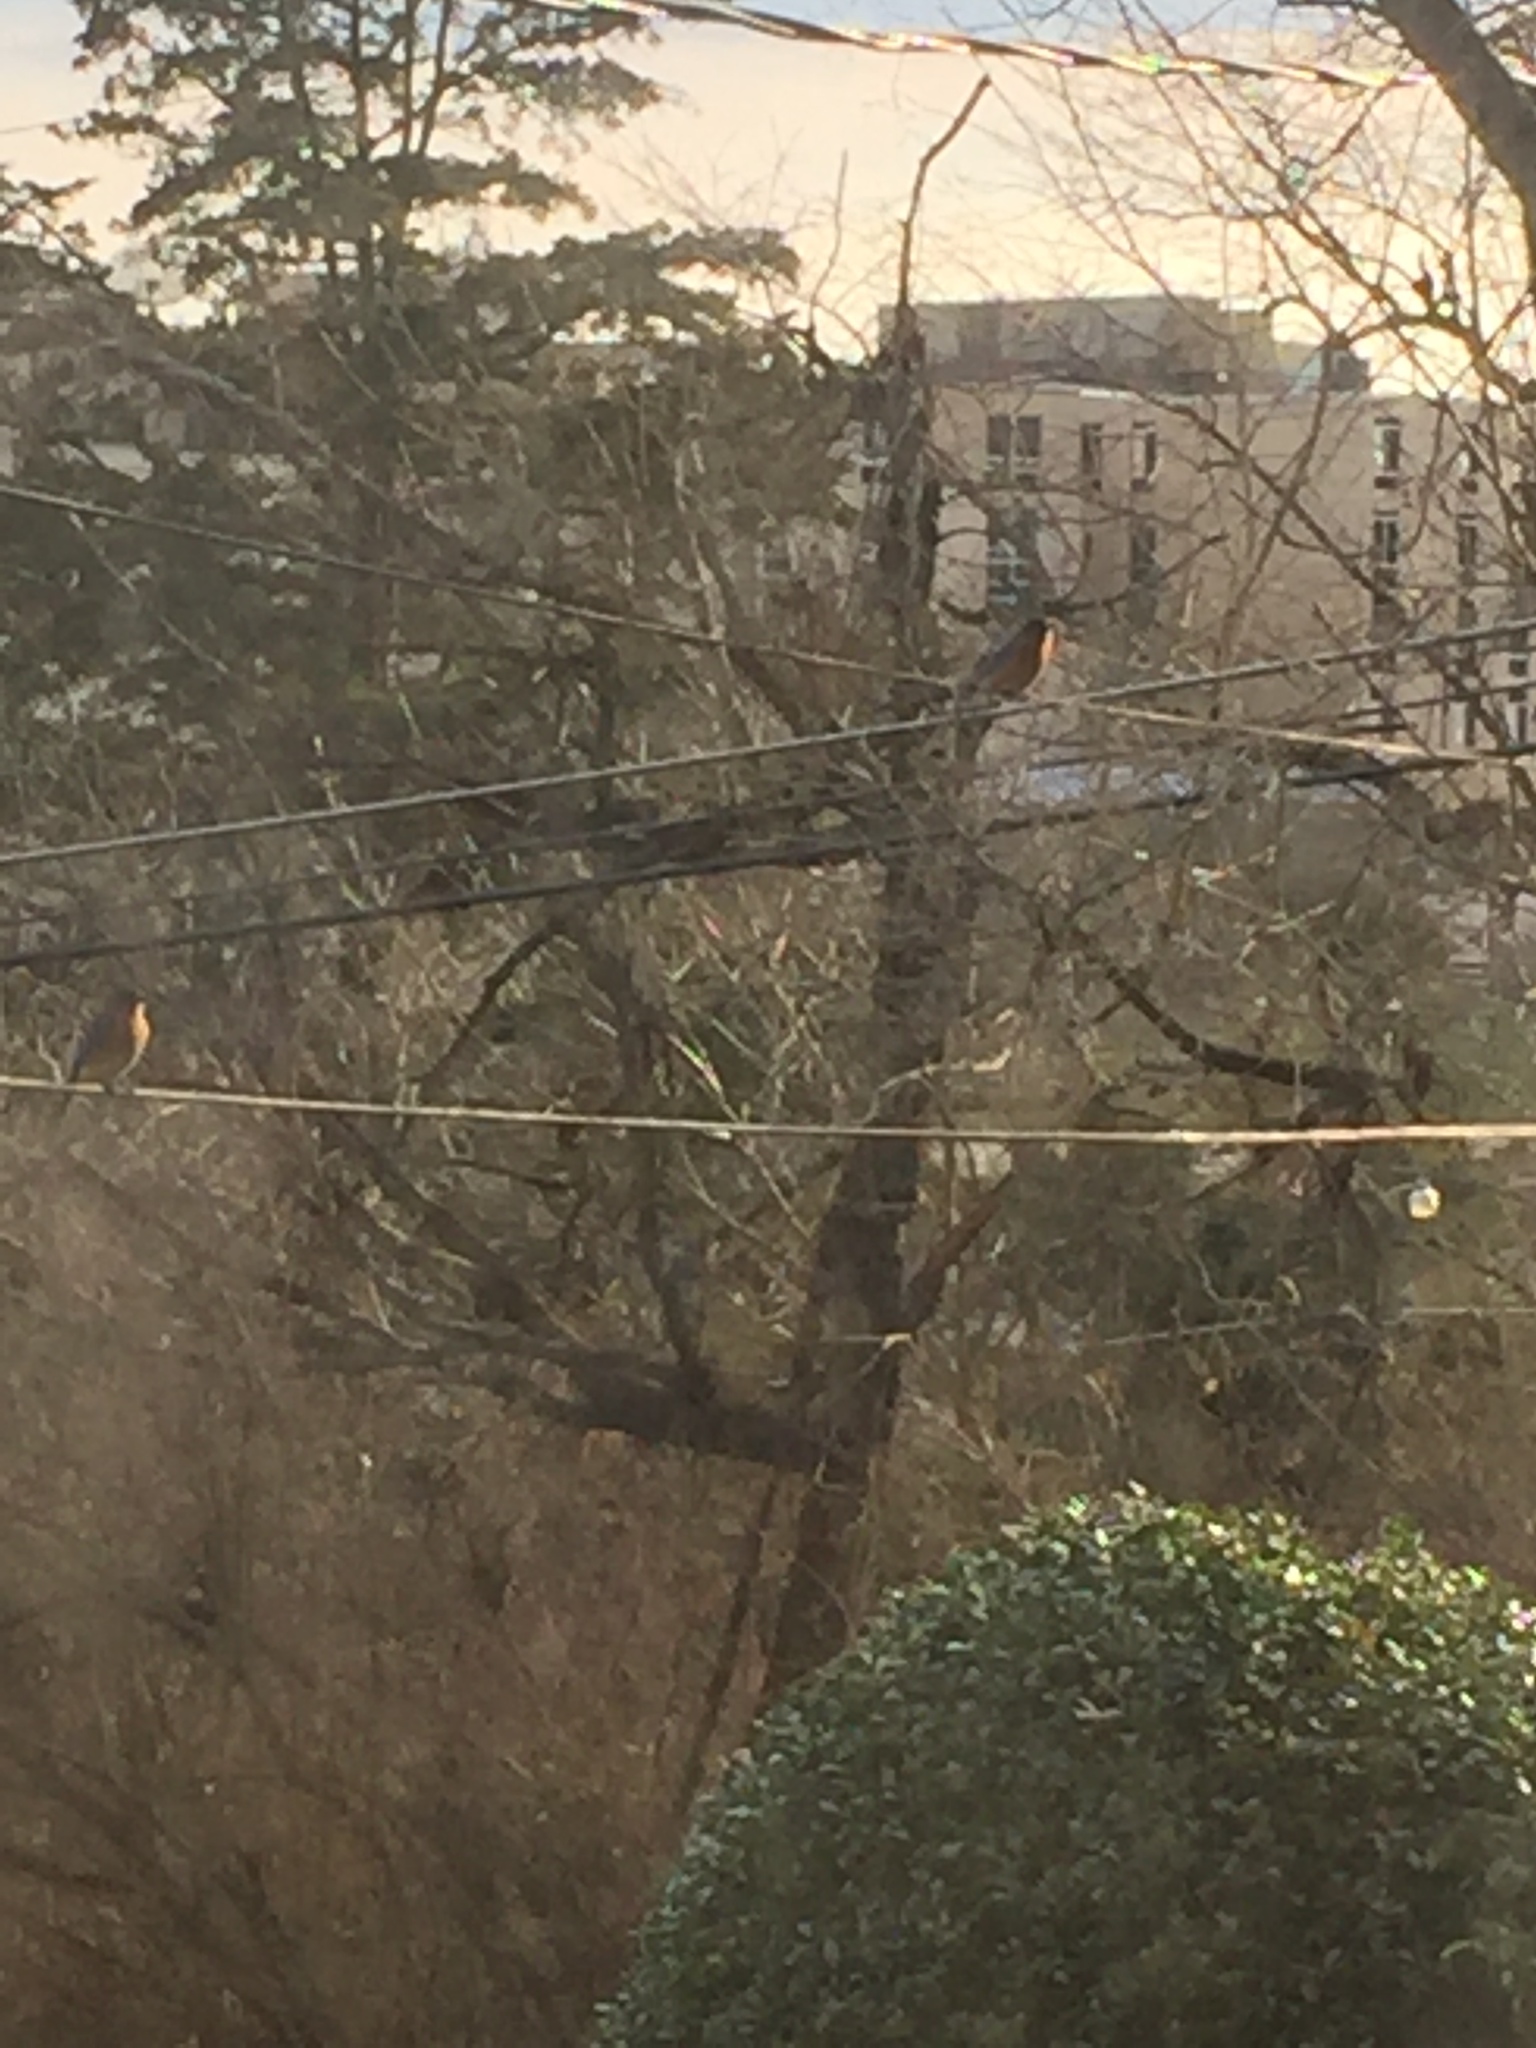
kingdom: Animalia
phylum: Chordata
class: Aves
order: Passeriformes
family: Turdidae
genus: Sialia
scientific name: Sialia sialis
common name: Eastern bluebird
